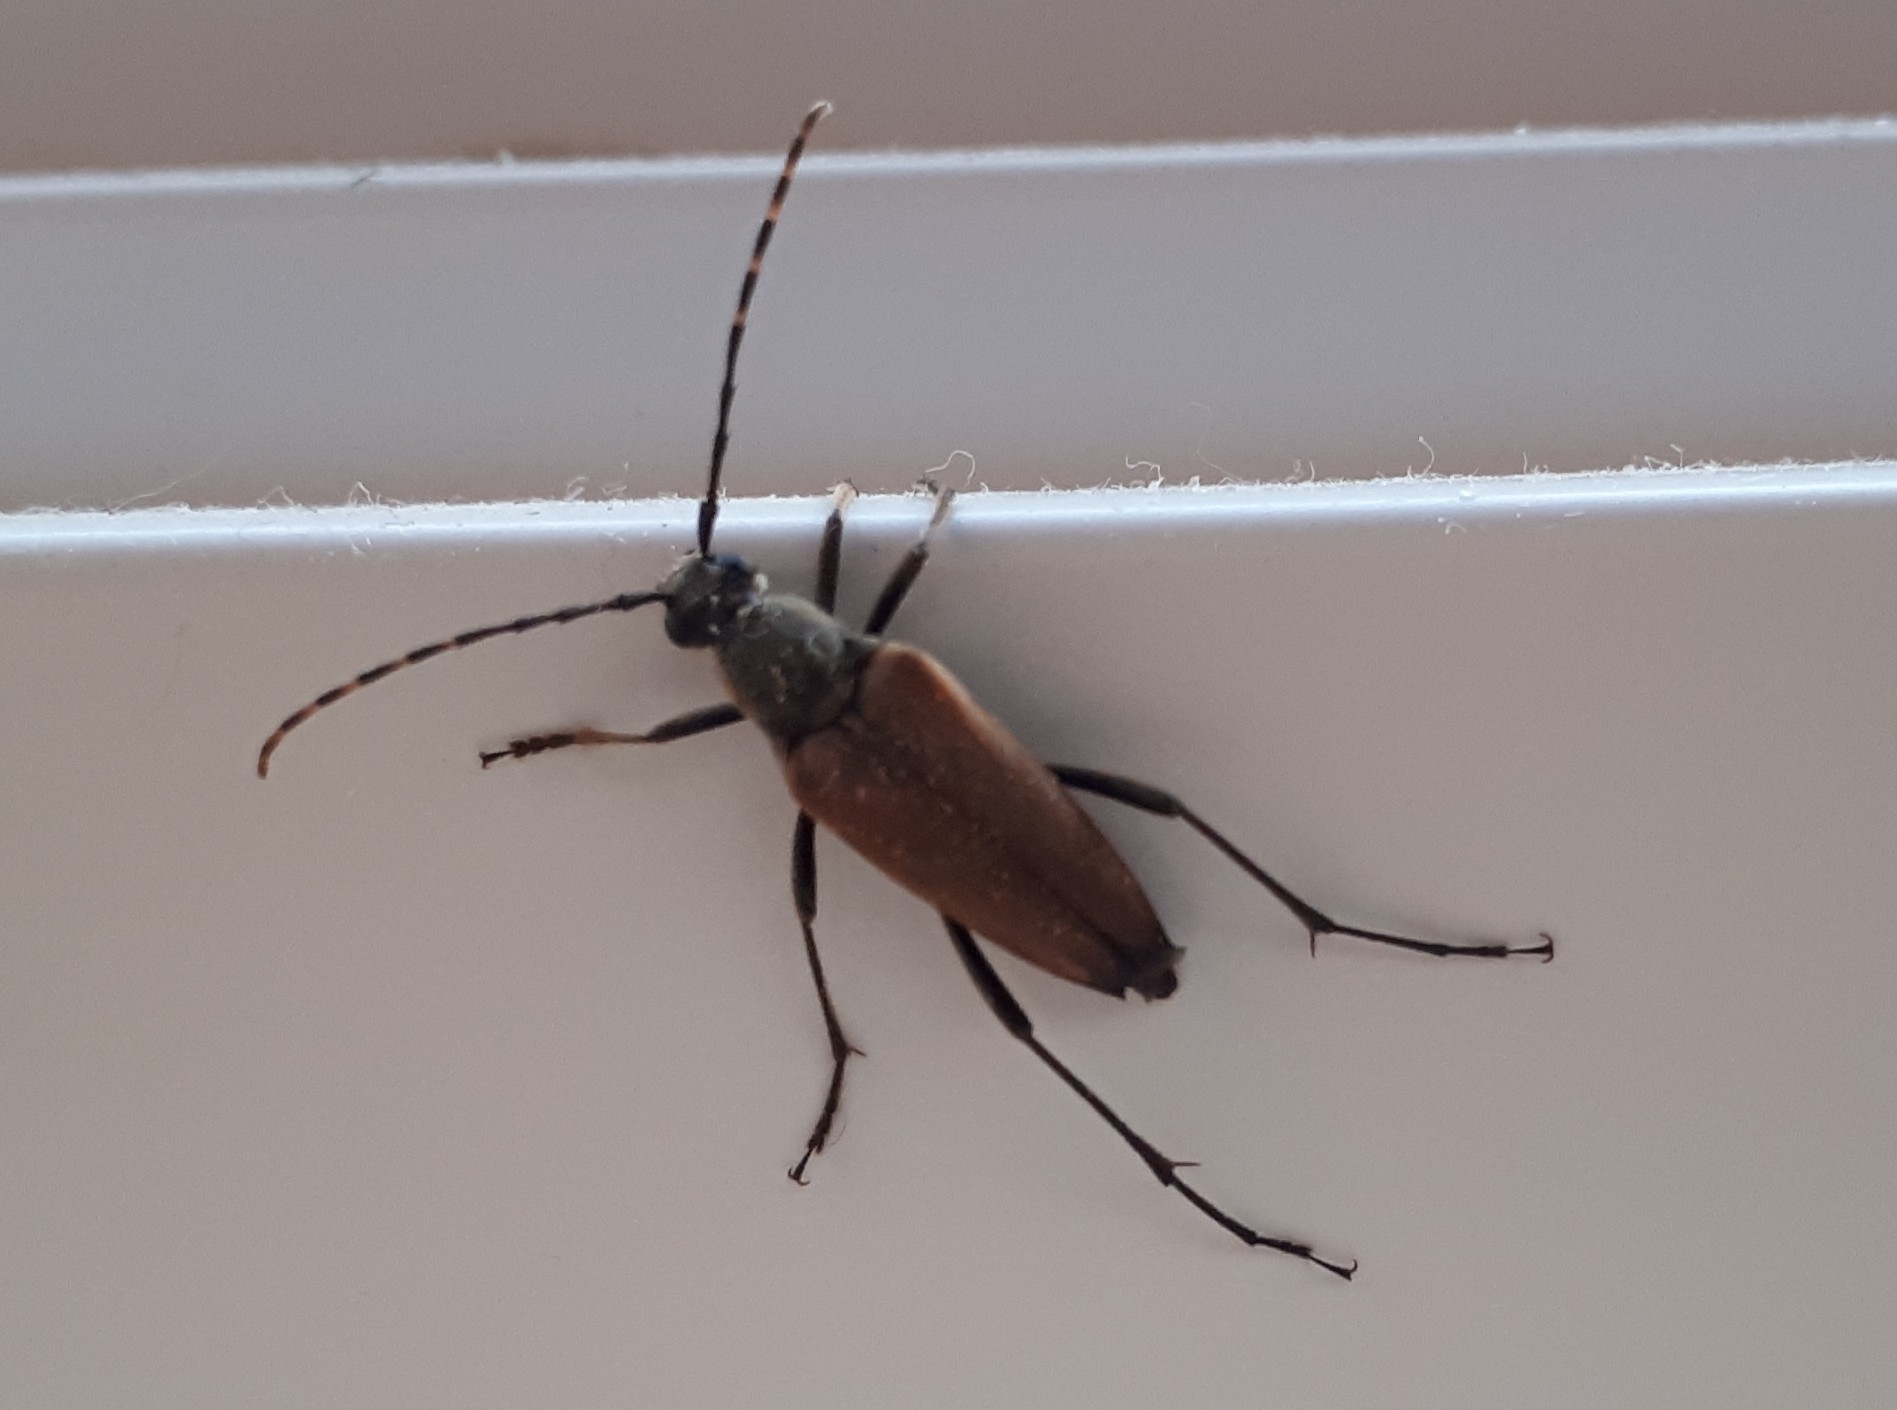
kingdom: Animalia
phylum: Arthropoda
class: Insecta
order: Coleoptera
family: Cerambycidae
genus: Brachyleptura
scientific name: Brachyleptura rubrica
